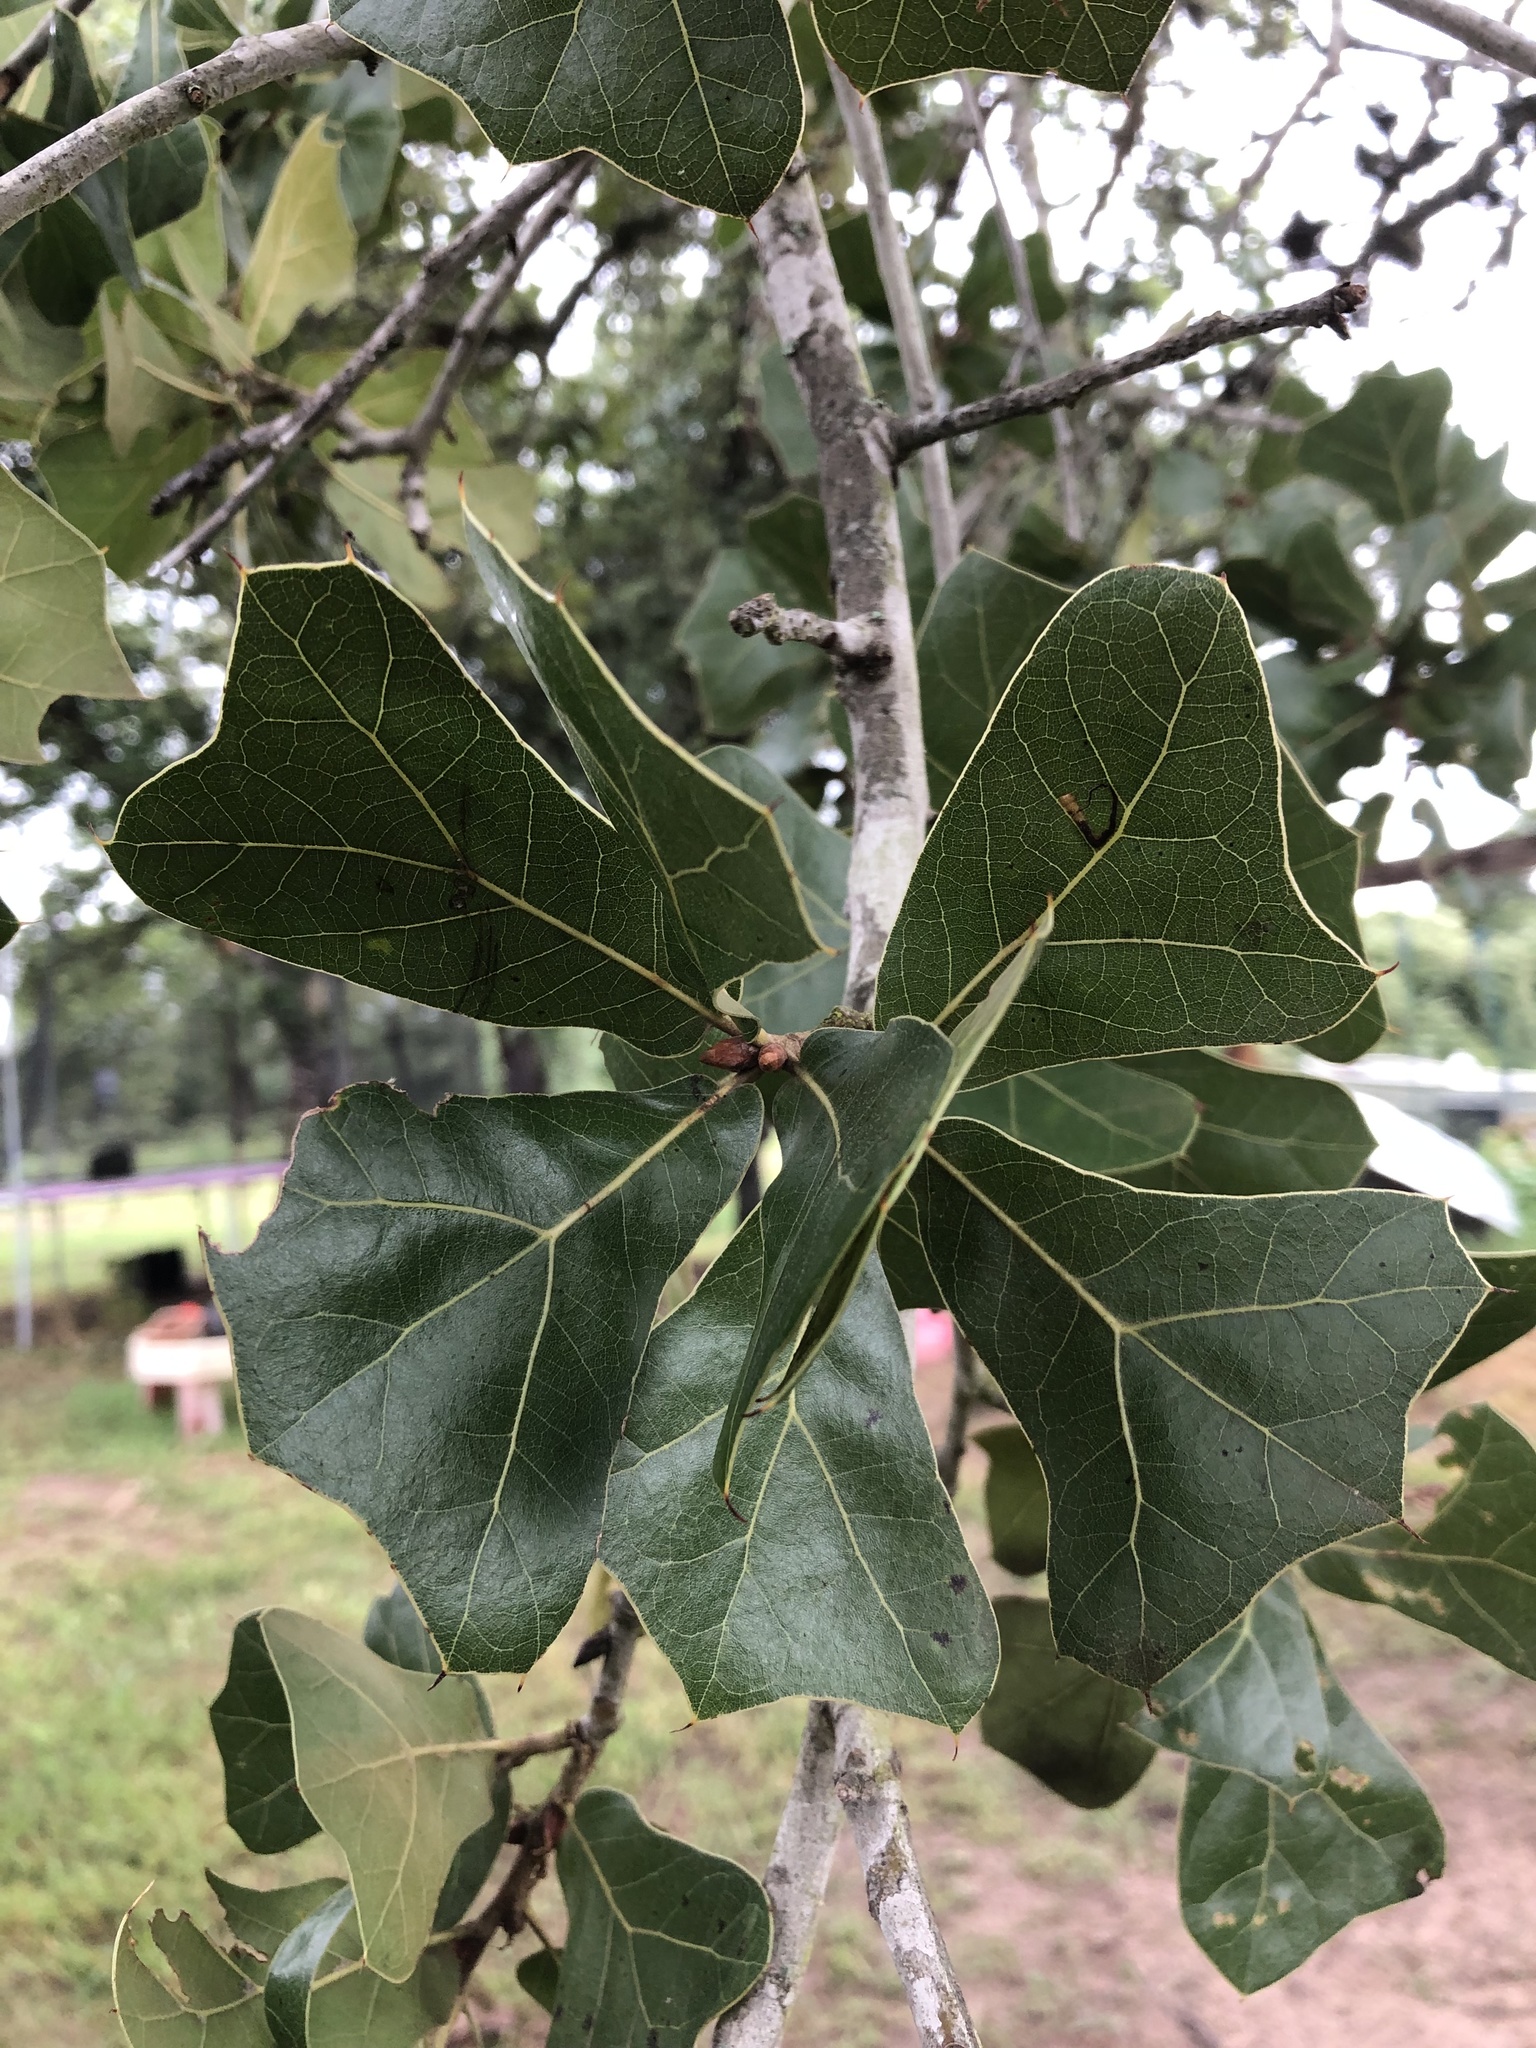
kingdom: Plantae
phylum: Tracheophyta
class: Magnoliopsida
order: Fagales
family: Fagaceae
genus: Quercus
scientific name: Quercus marilandica
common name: Blackjack oak
